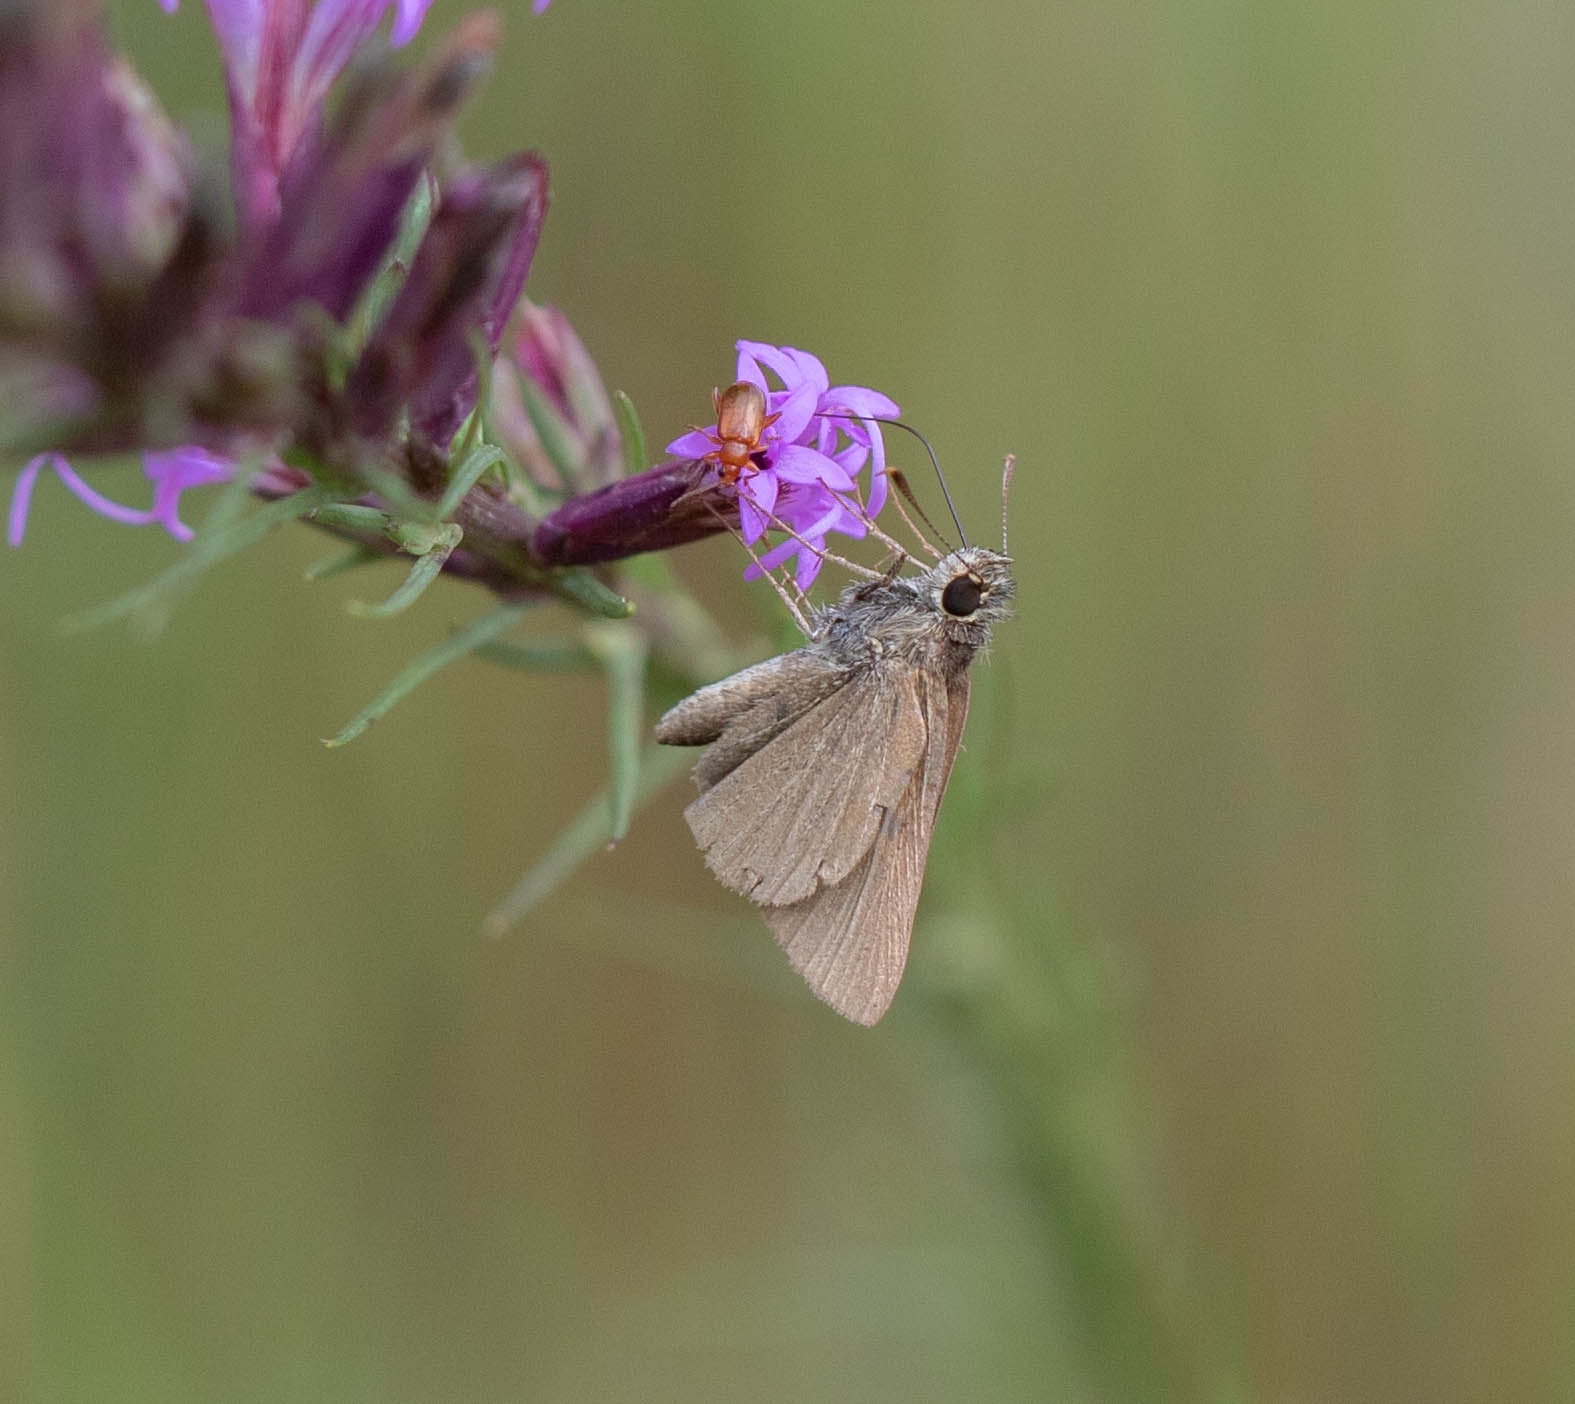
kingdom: Animalia
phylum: Arthropoda
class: Insecta
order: Lepidoptera
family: Hesperiidae
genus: Nastra
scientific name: Nastra lherminier
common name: Swarthy skipper
